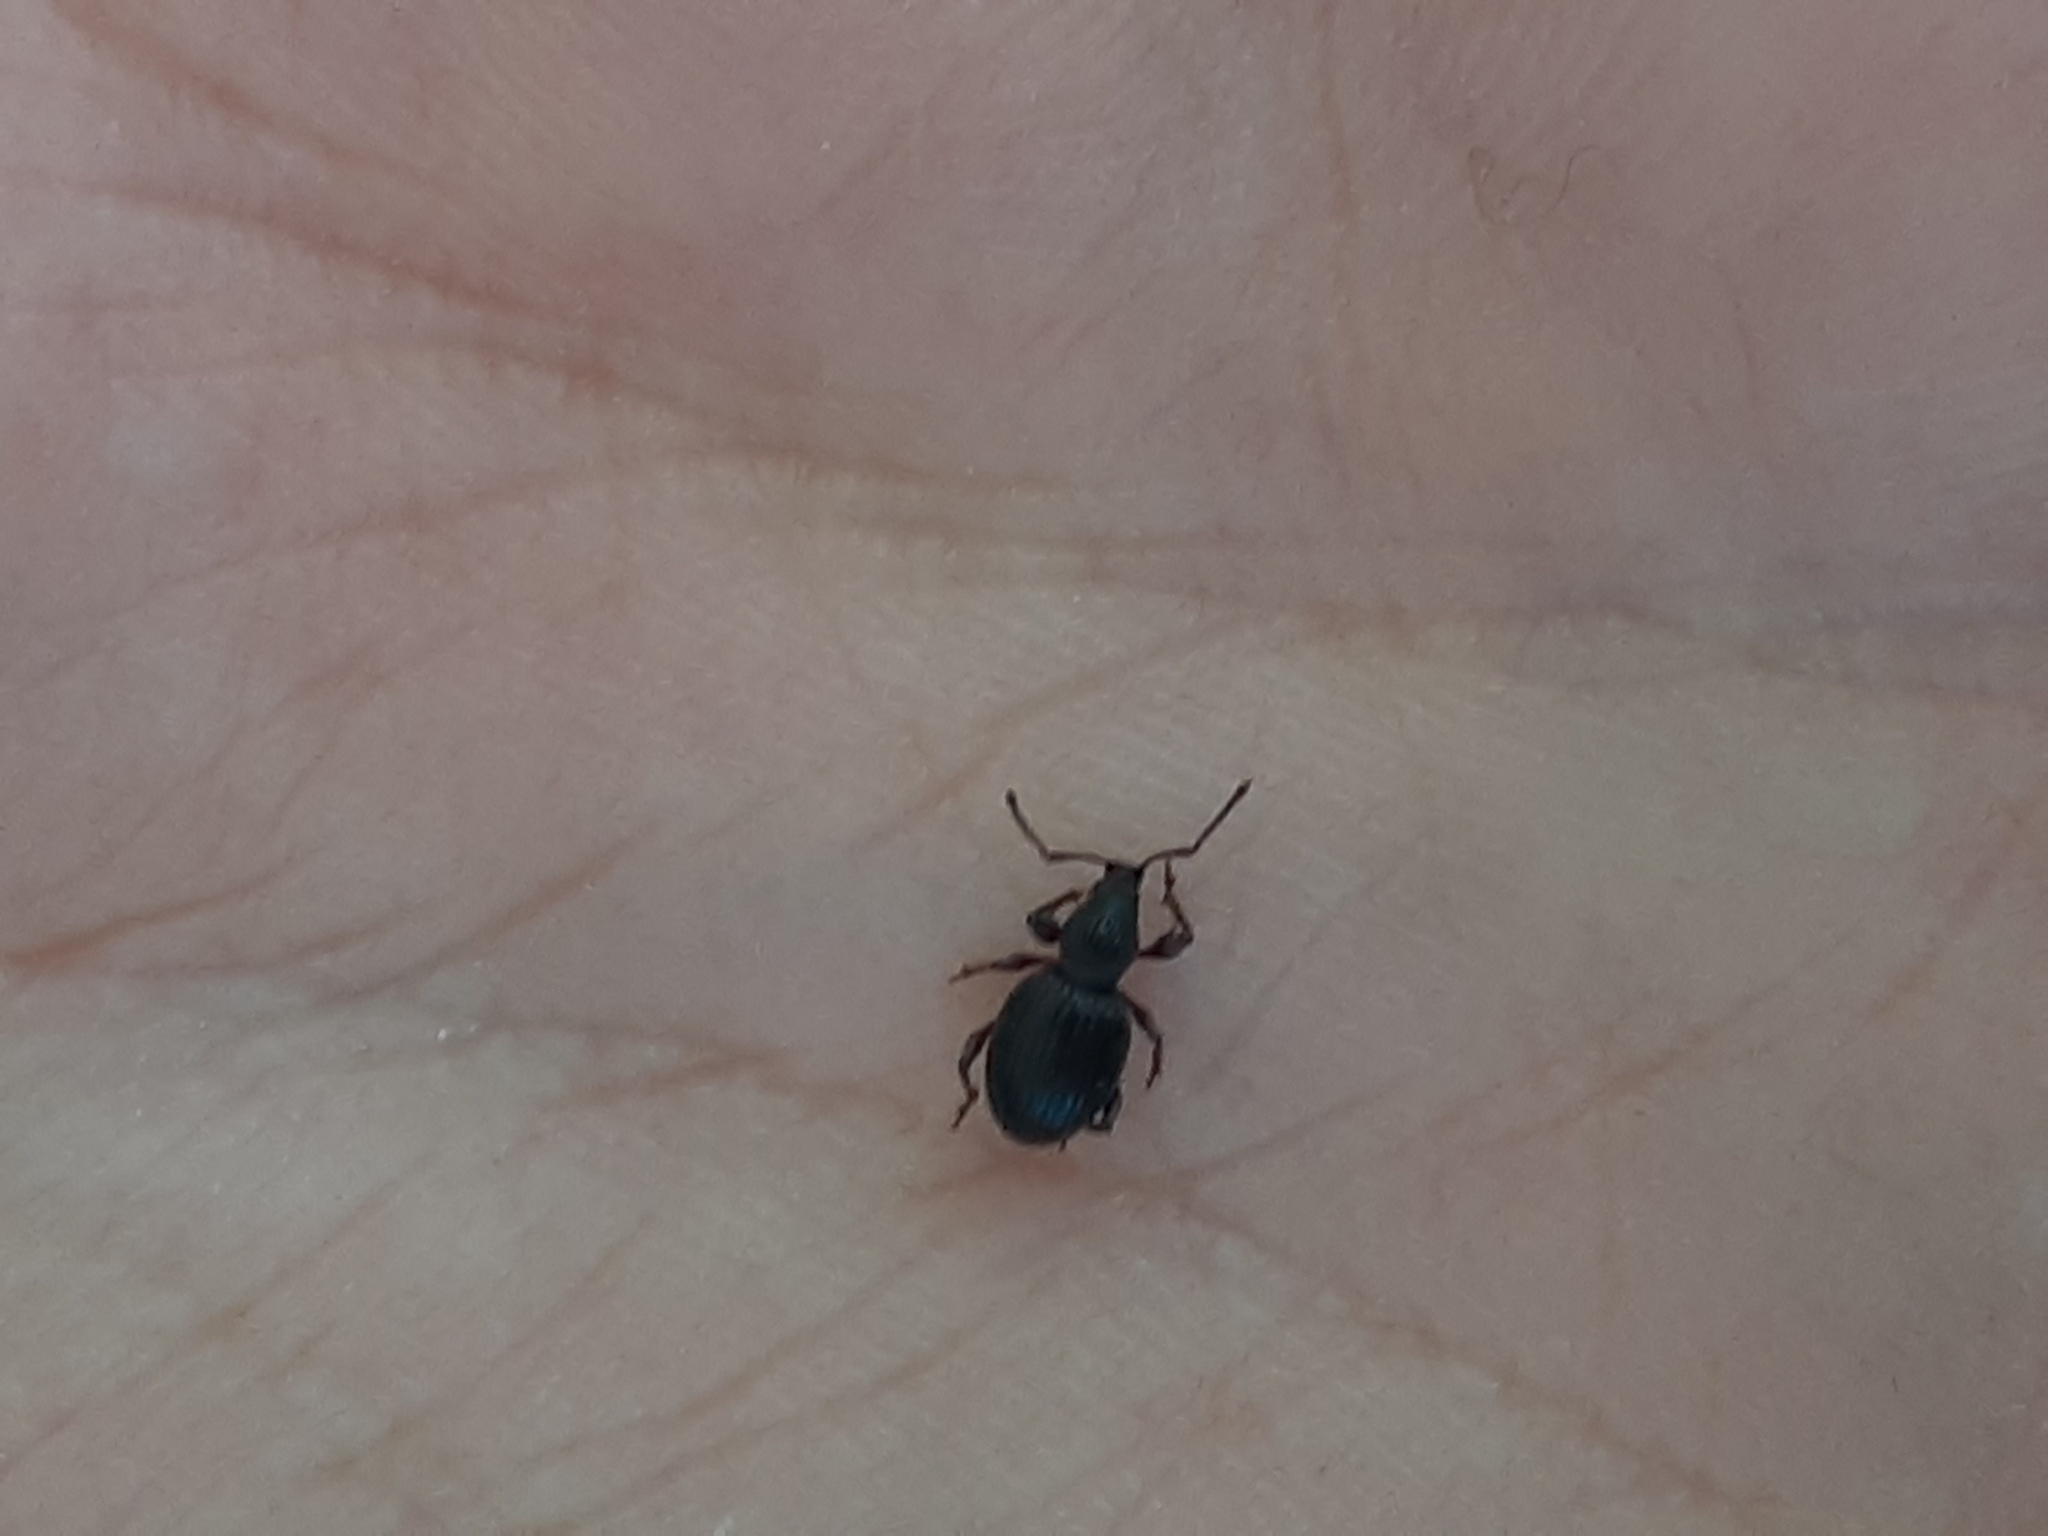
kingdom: Animalia
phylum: Arthropoda
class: Insecta
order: Coleoptera
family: Curculionidae
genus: Otiorhynchus
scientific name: Otiorhynchus ovatus
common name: Strawberry root weevil
